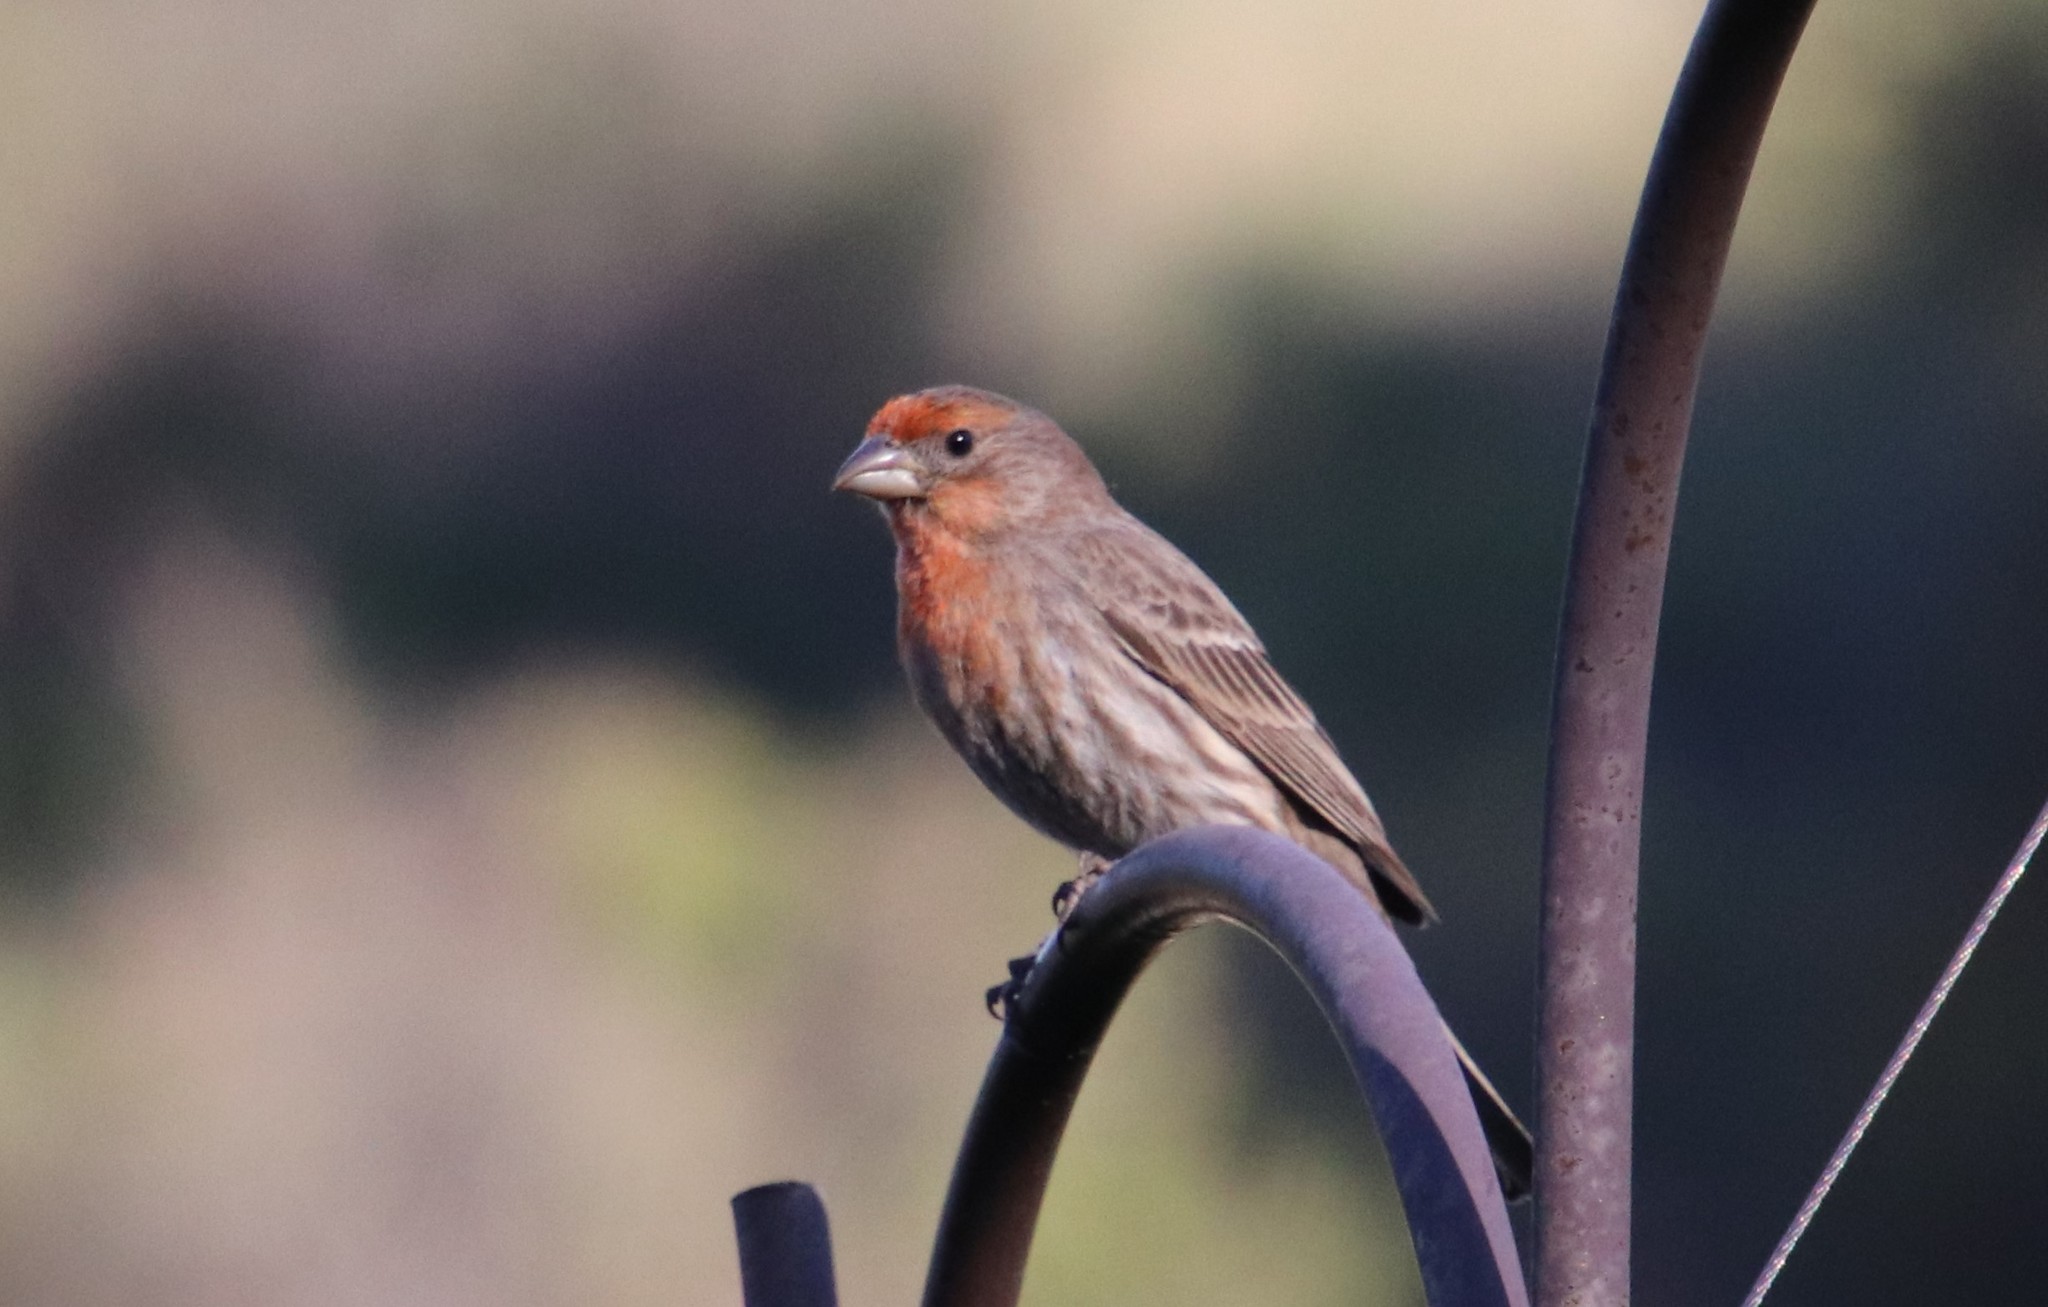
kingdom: Animalia
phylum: Chordata
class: Aves
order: Passeriformes
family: Fringillidae
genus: Haemorhous
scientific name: Haemorhous mexicanus
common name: House finch
